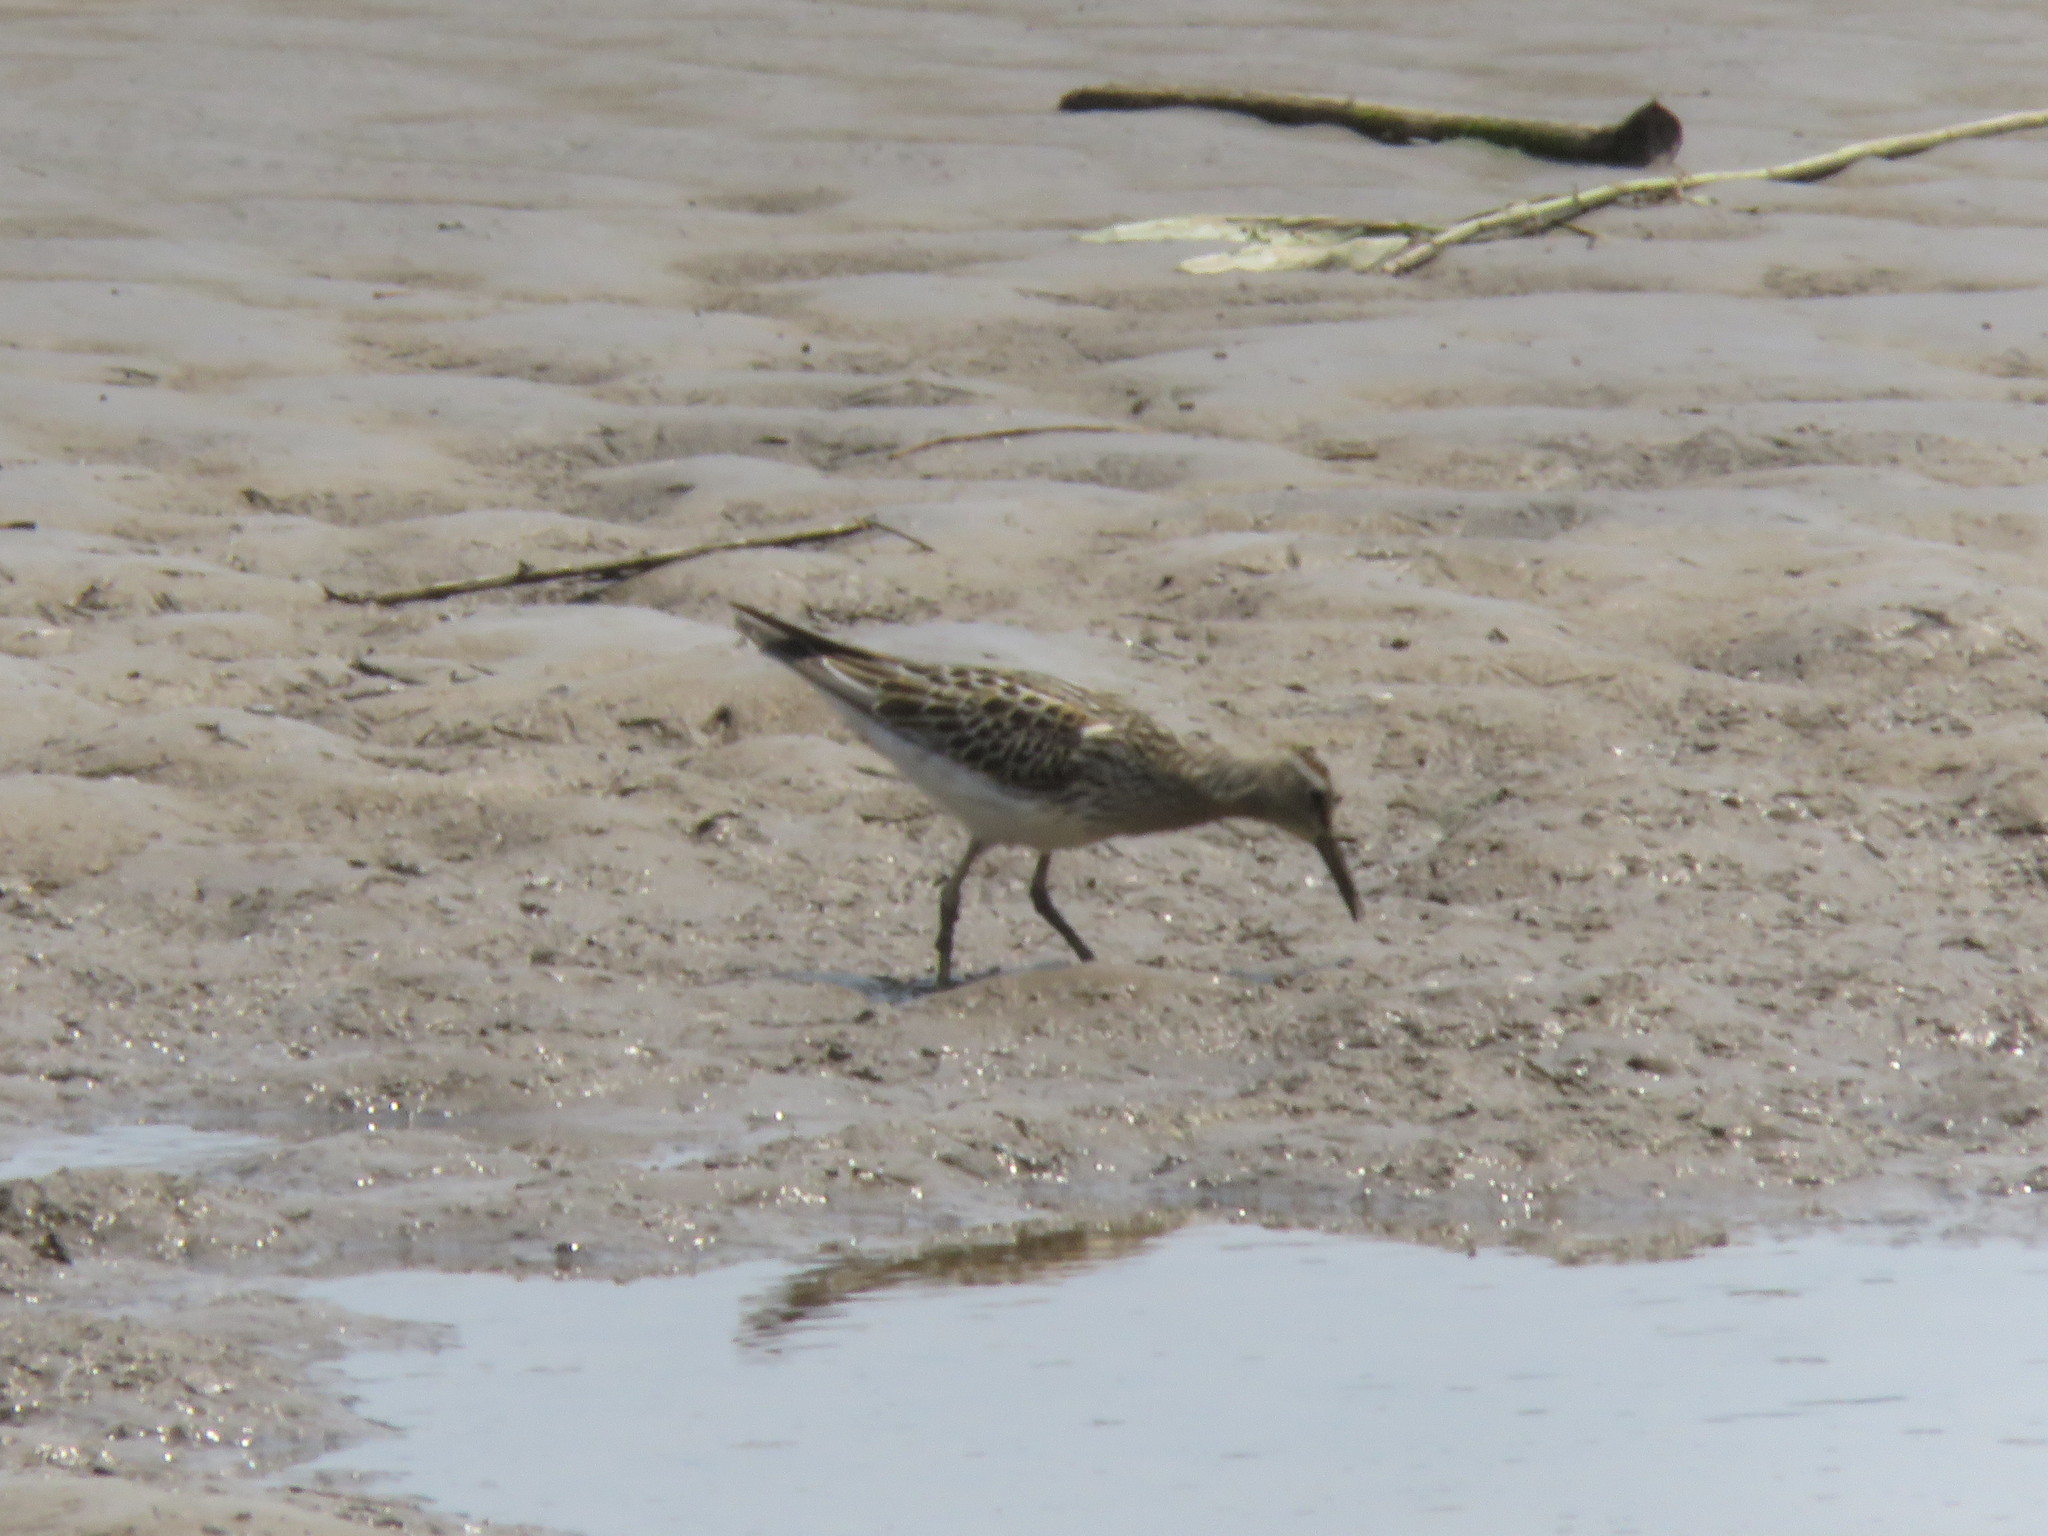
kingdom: Animalia
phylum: Chordata
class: Aves
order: Charadriiformes
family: Scolopacidae
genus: Calidris
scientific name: Calidris melanotos
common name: Pectoral sandpiper
